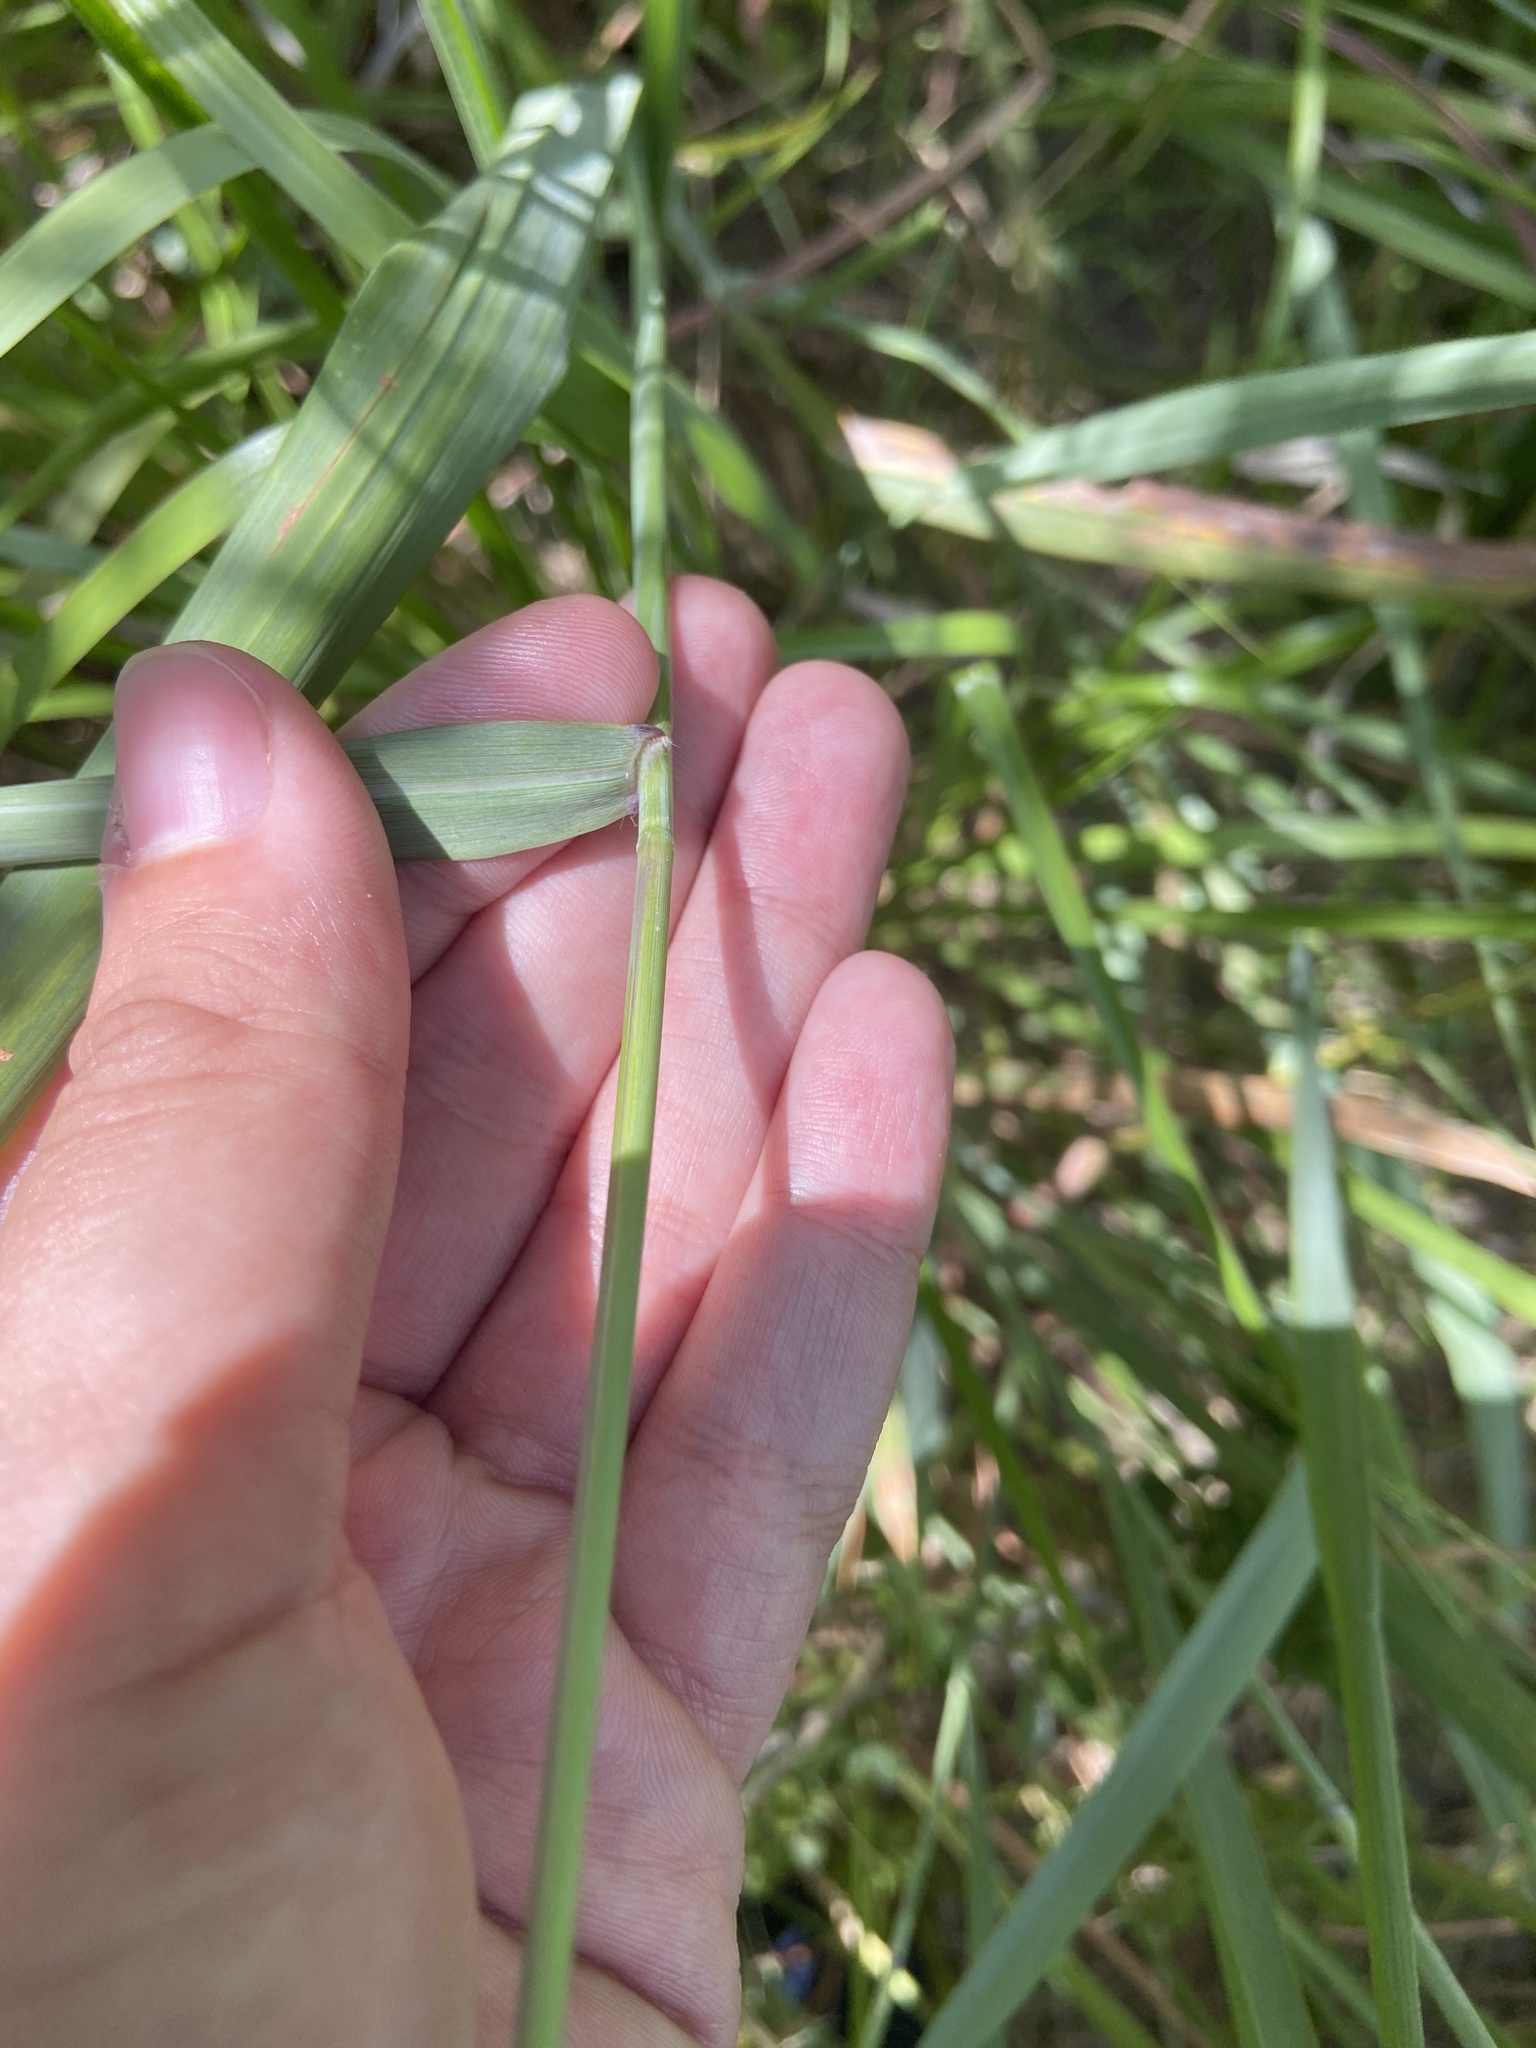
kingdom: Plantae
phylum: Tracheophyta
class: Liliopsida
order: Poales
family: Poaceae
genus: Panicum
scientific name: Panicum virgatum
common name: Switchgrass
